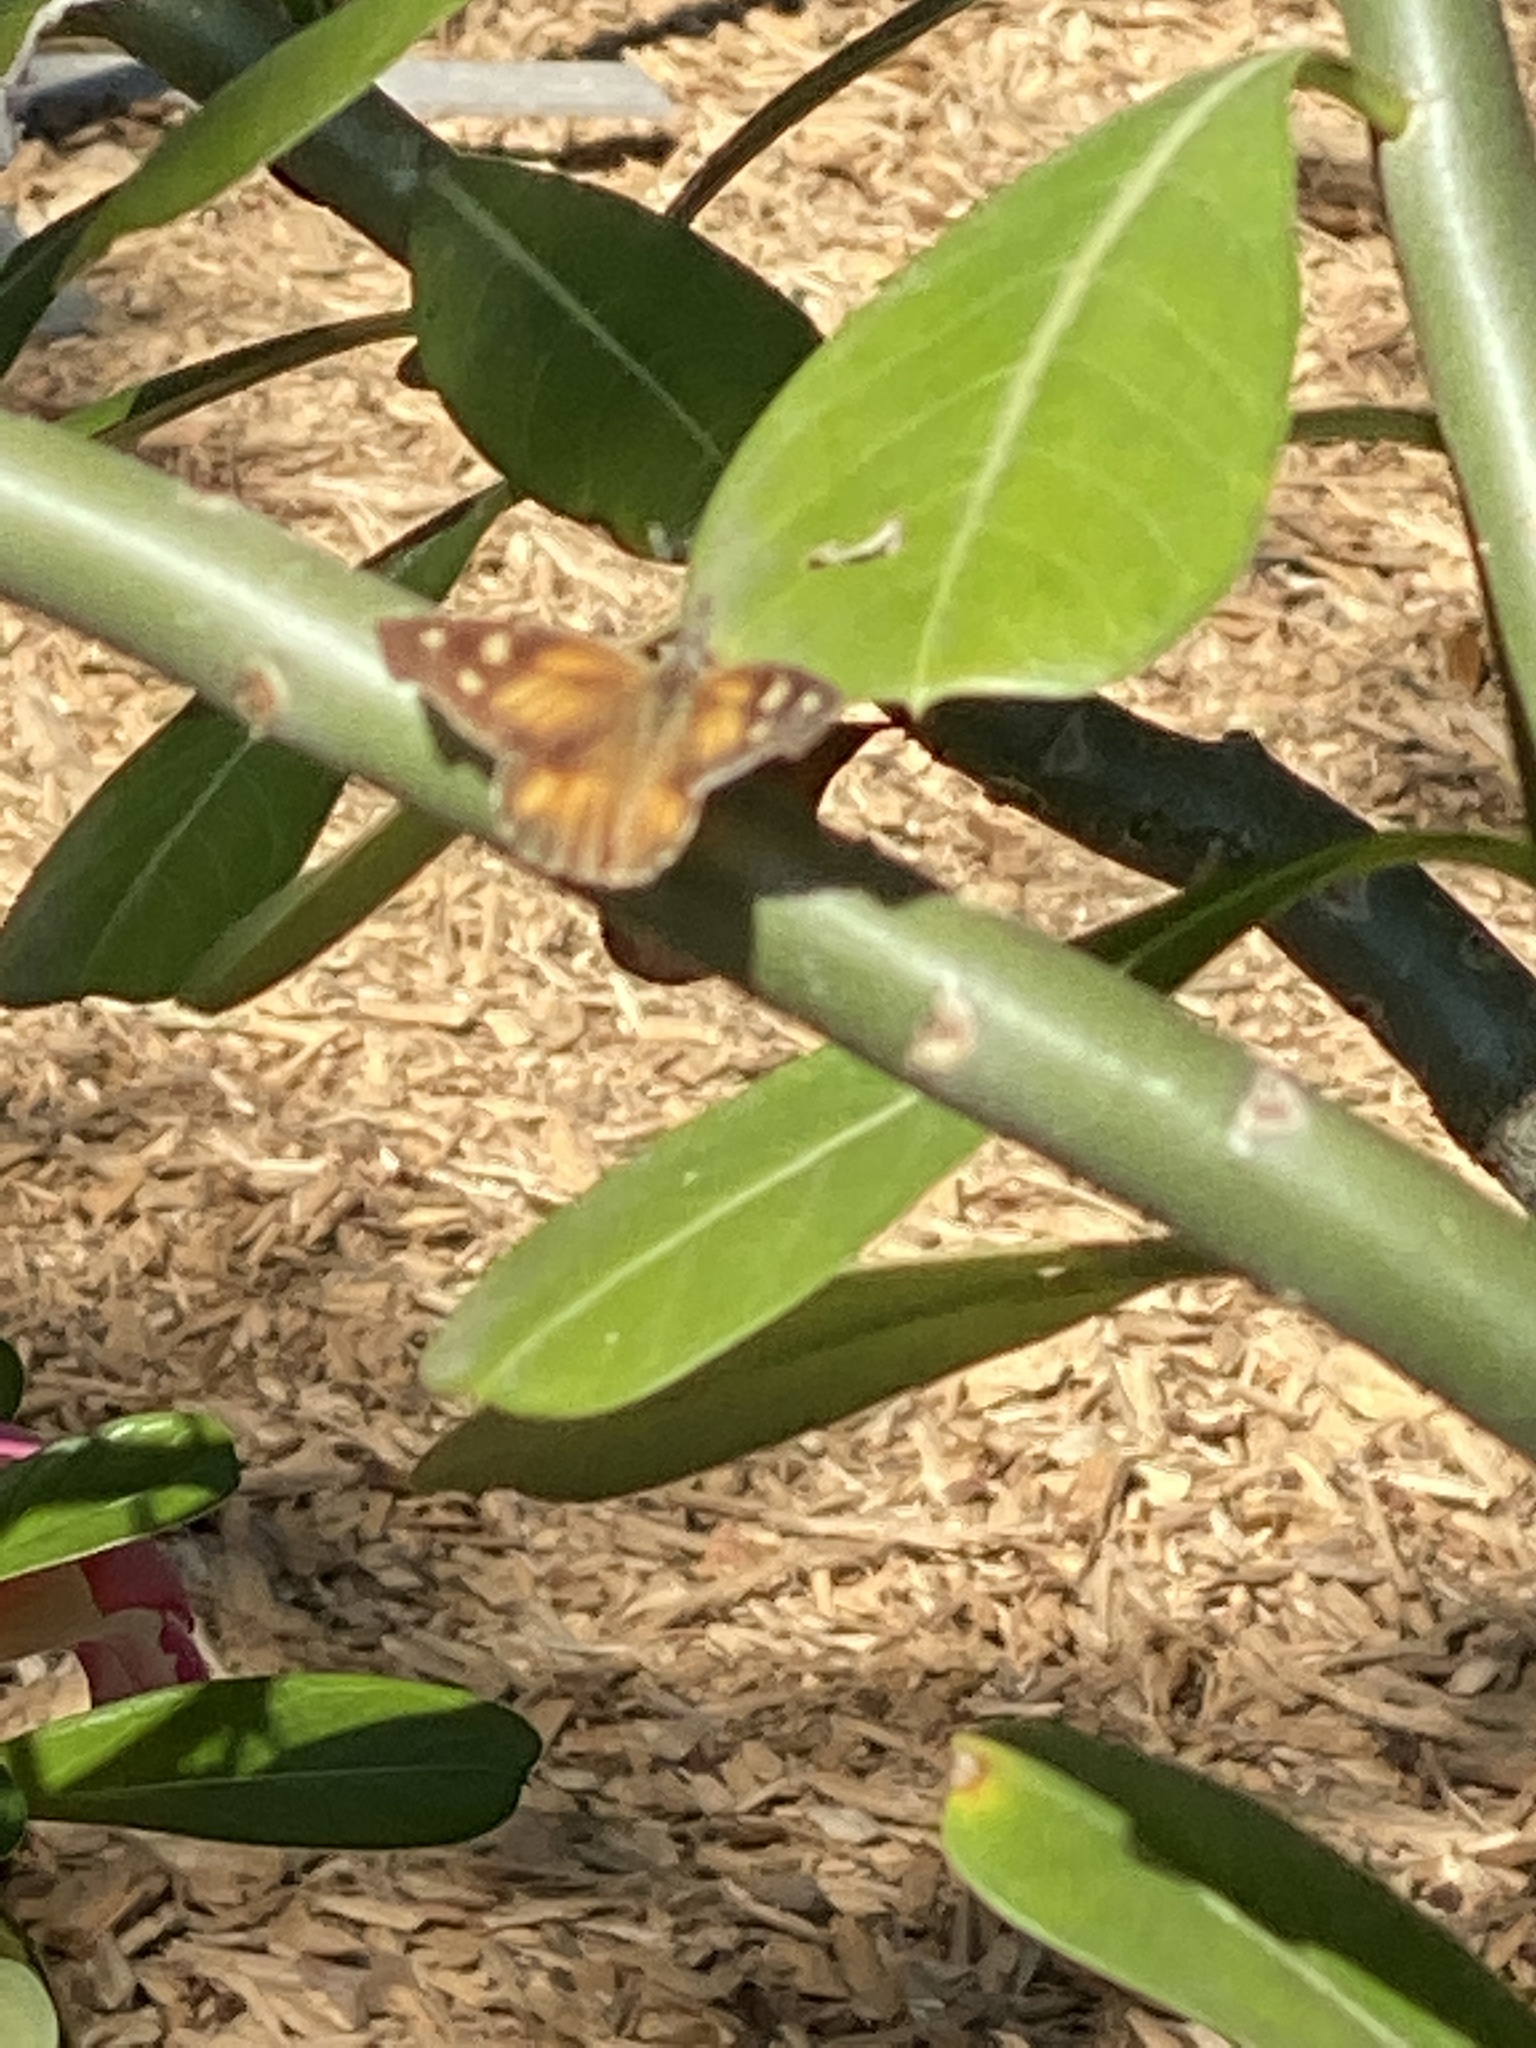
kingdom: Animalia
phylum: Arthropoda
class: Insecta
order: Lepidoptera
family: Nymphalidae
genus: Libytheana
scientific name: Libytheana carinenta
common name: American snout
